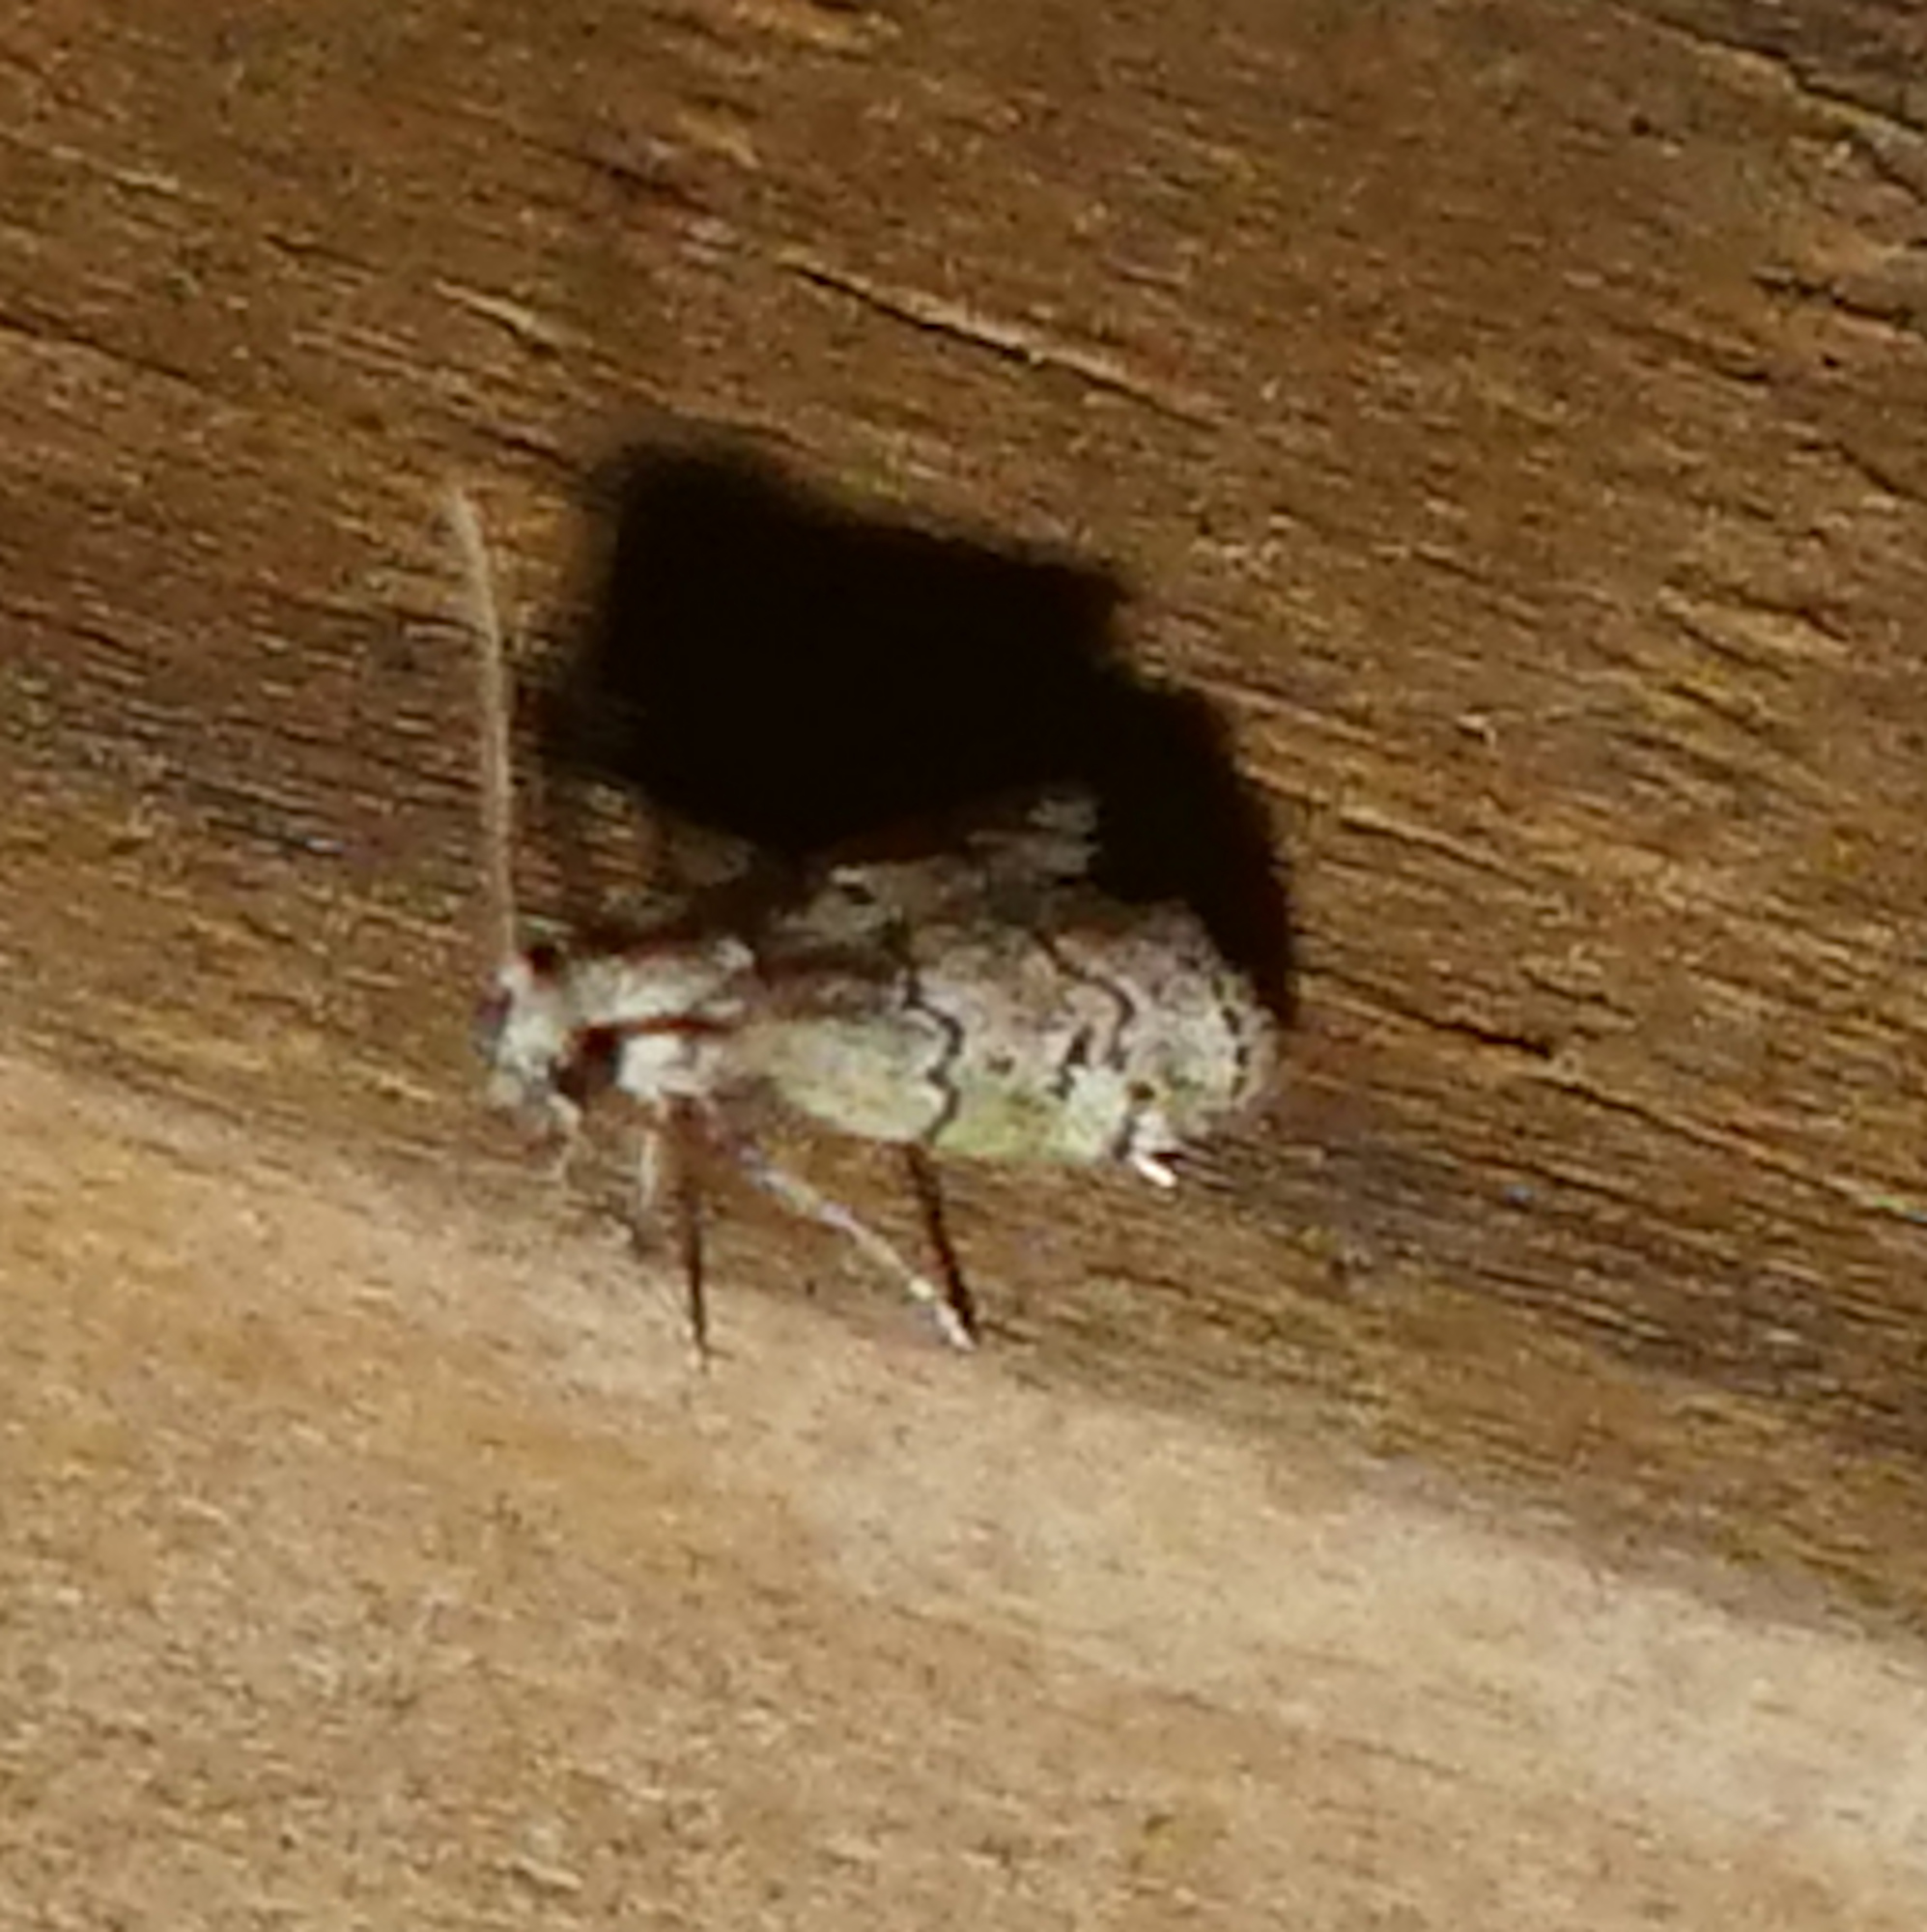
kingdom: Animalia
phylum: Arthropoda
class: Insecta
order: Lepidoptera
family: Pyralidae
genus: Cacotherapia
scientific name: Cacotherapia flexilinealis
